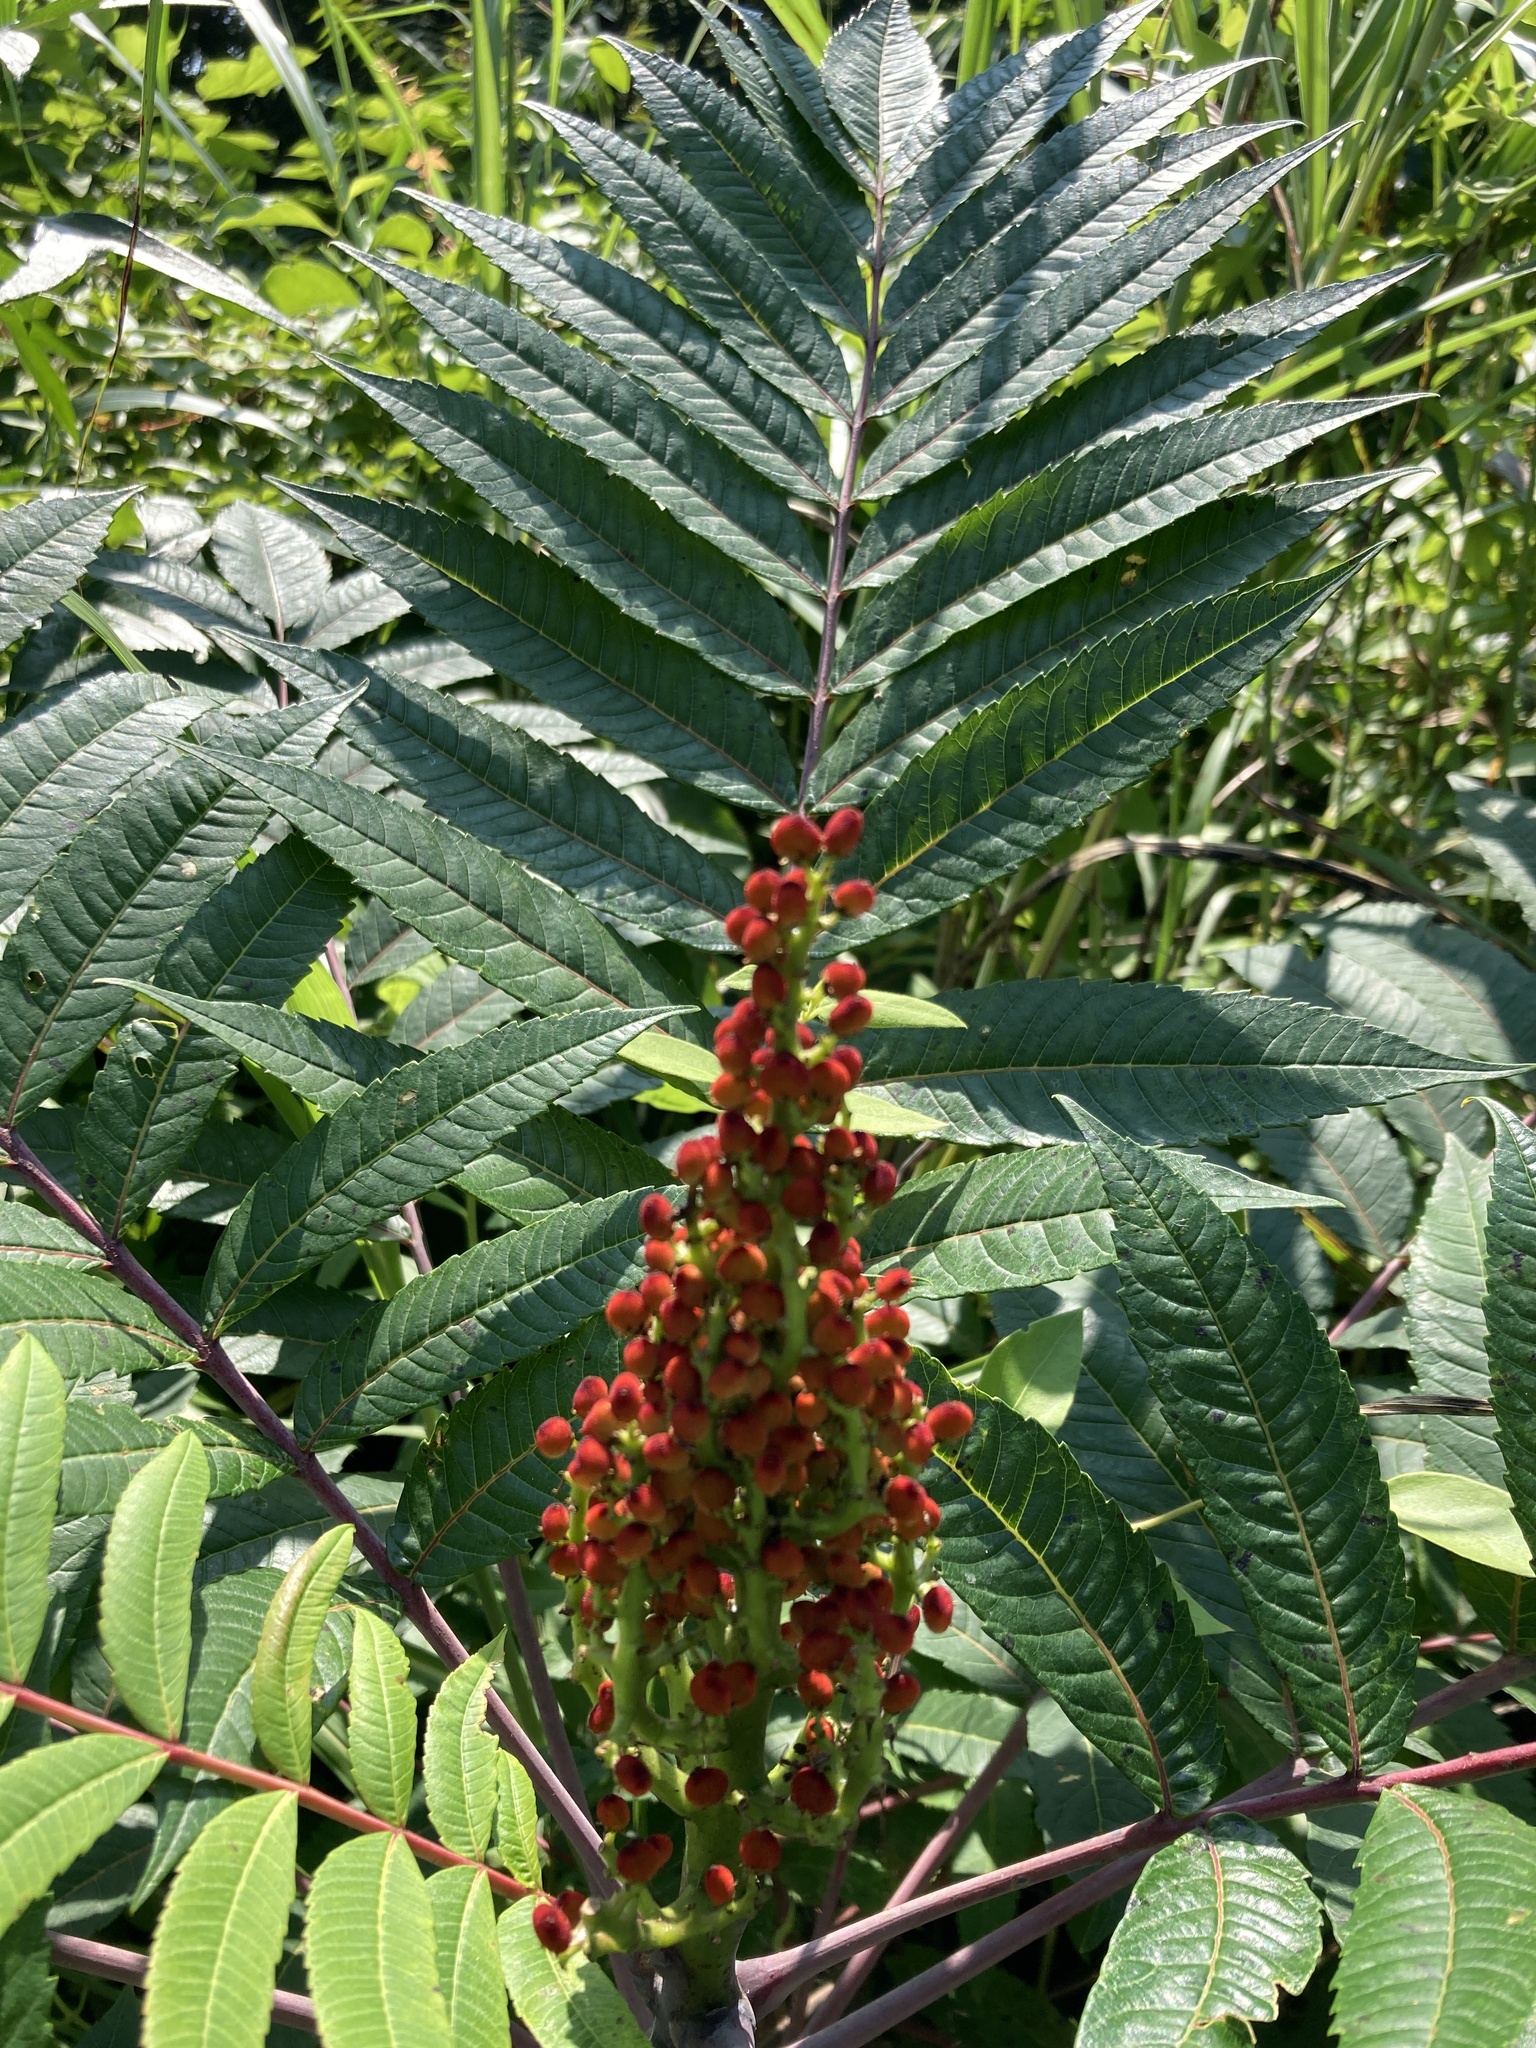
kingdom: Plantae
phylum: Tracheophyta
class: Magnoliopsida
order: Sapindales
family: Anacardiaceae
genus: Rhus
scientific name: Rhus glabra
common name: Scarlet sumac
